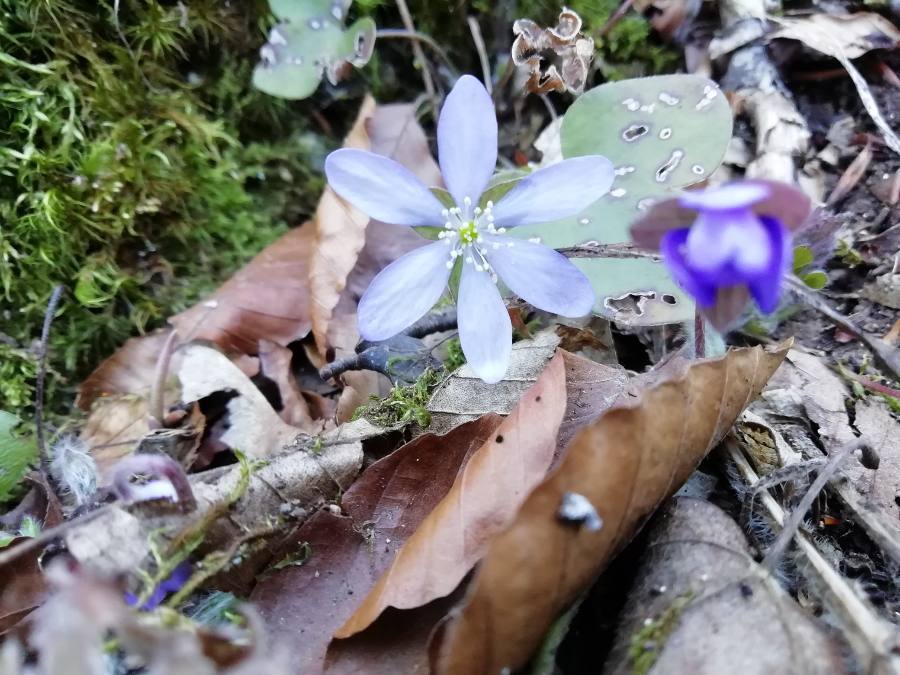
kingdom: Plantae
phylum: Tracheophyta
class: Magnoliopsida
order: Ranunculales
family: Ranunculaceae
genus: Hepatica
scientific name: Hepatica nobilis
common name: Liverleaf
